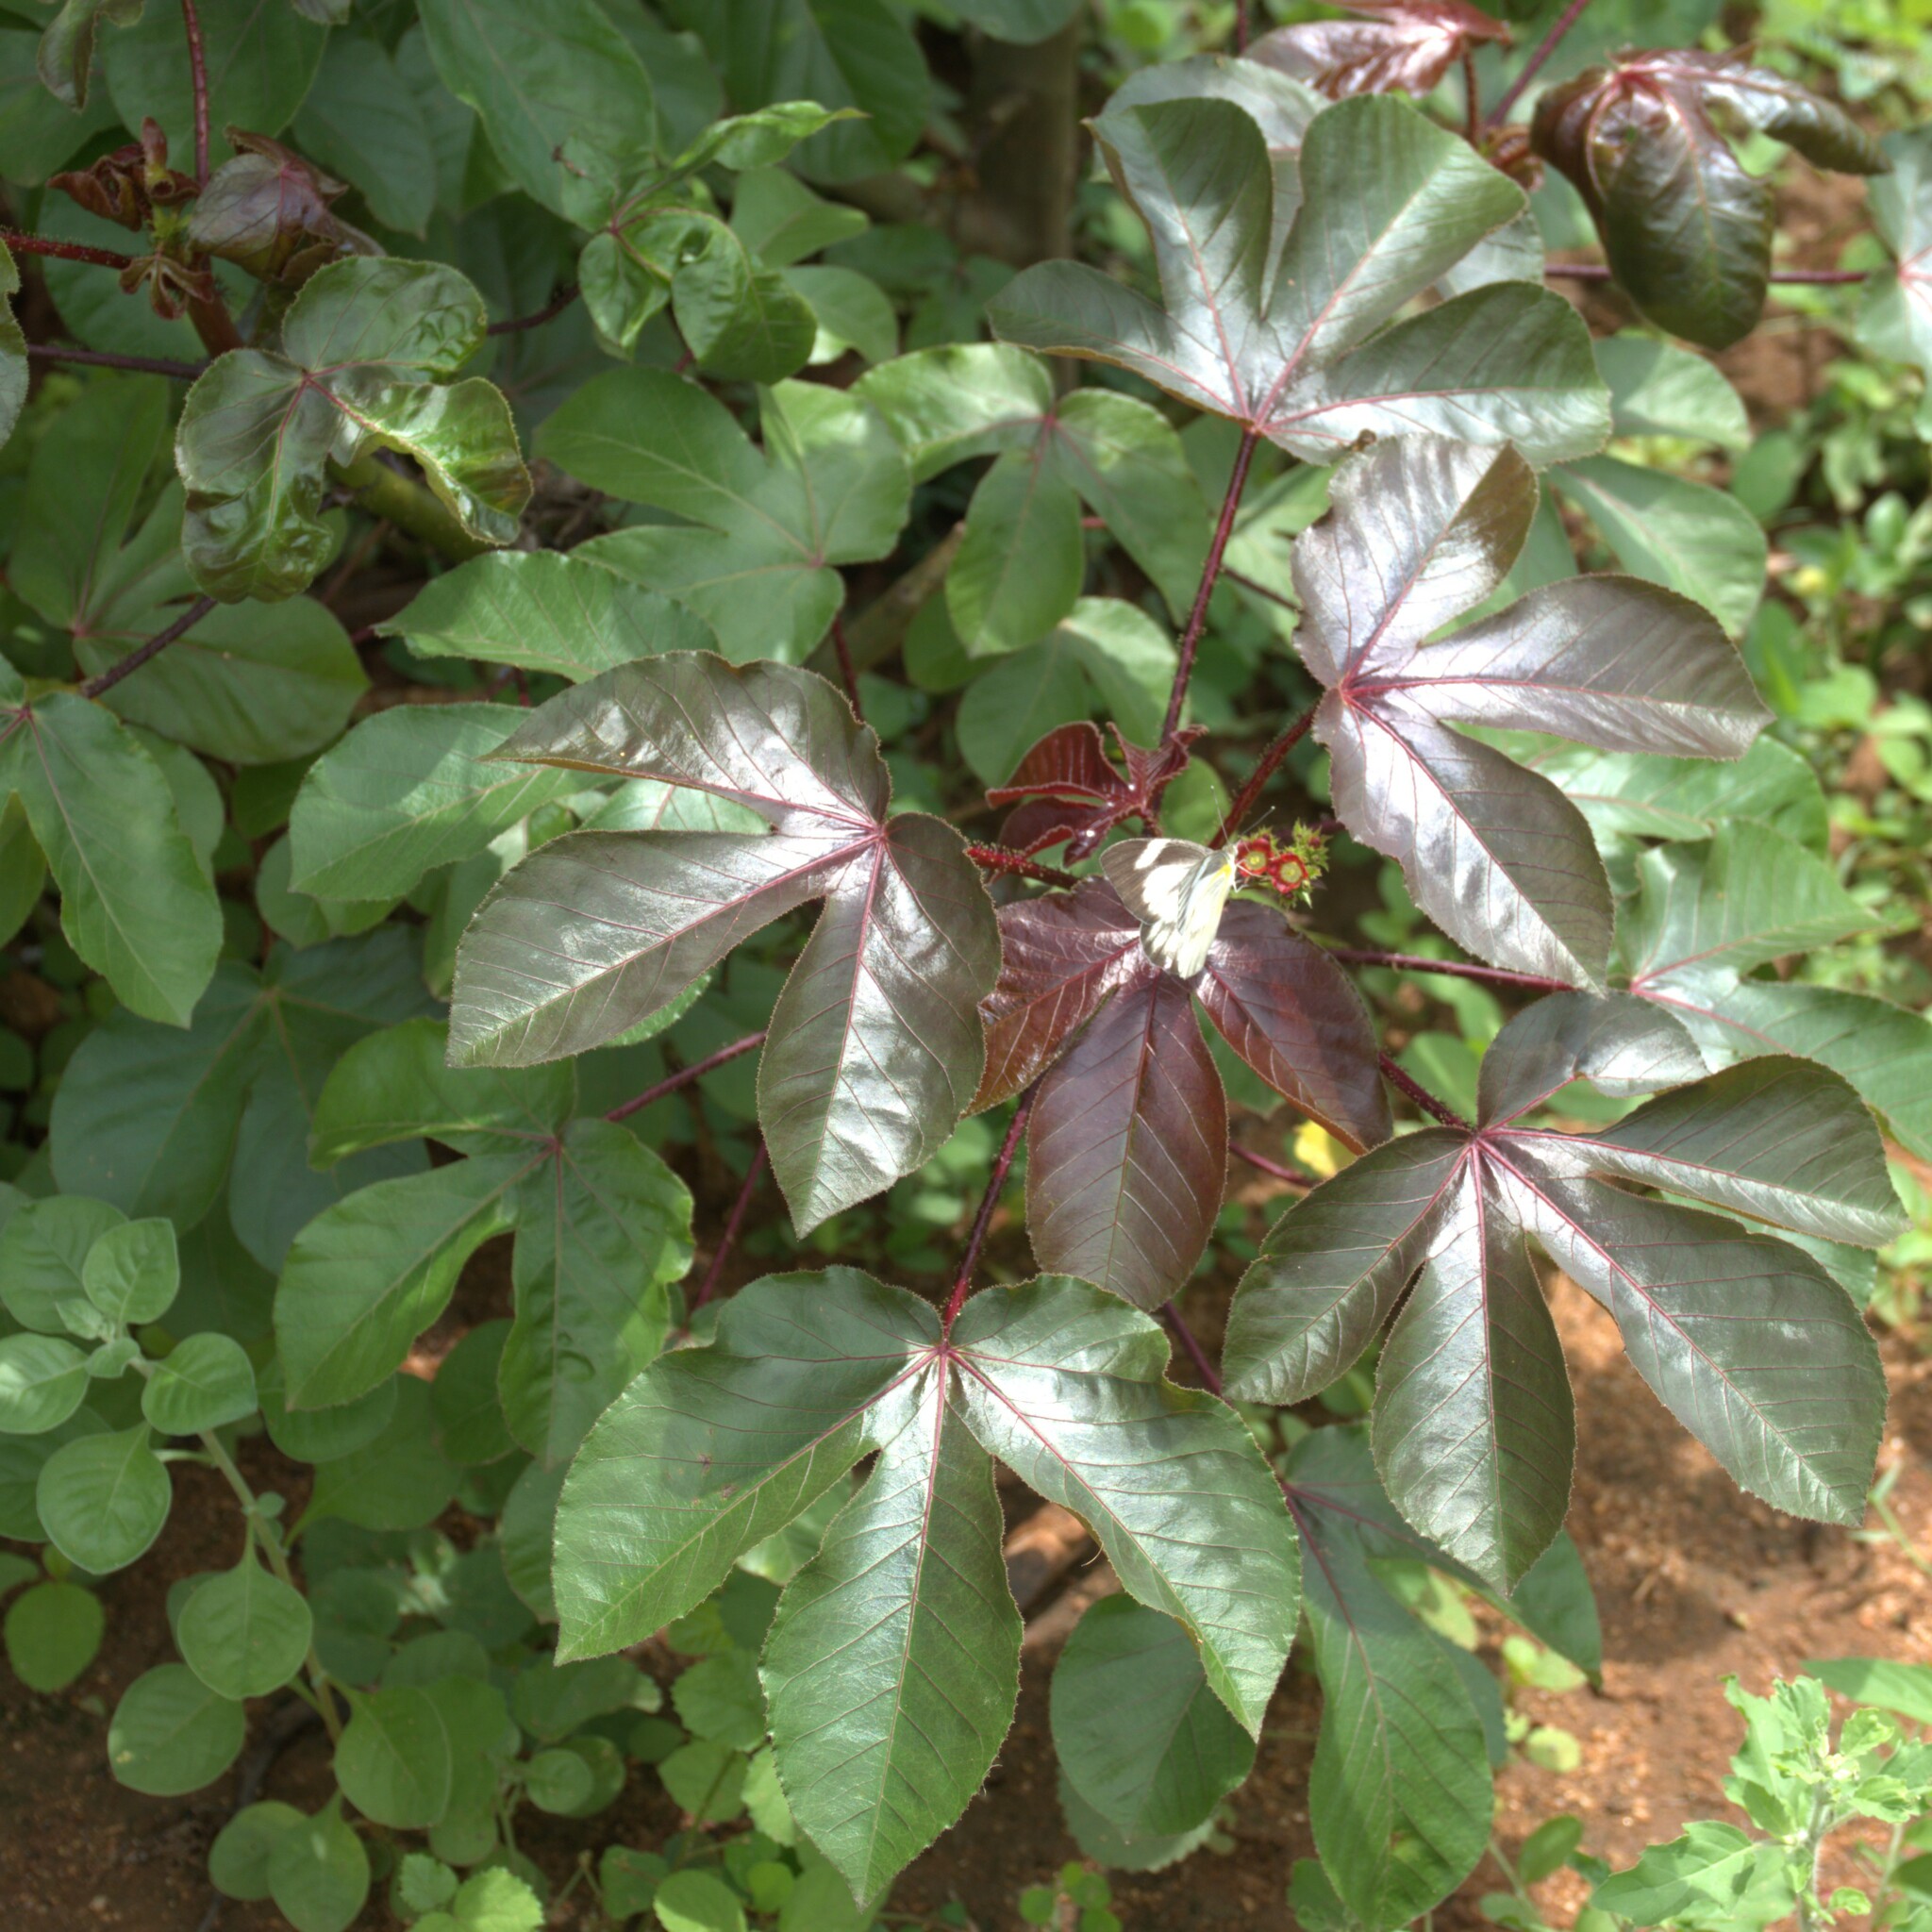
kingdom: Plantae
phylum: Tracheophyta
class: Magnoliopsida
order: Malpighiales
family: Euphorbiaceae
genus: Jatropha
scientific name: Jatropha gossypiifolia
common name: Bellyache bush
